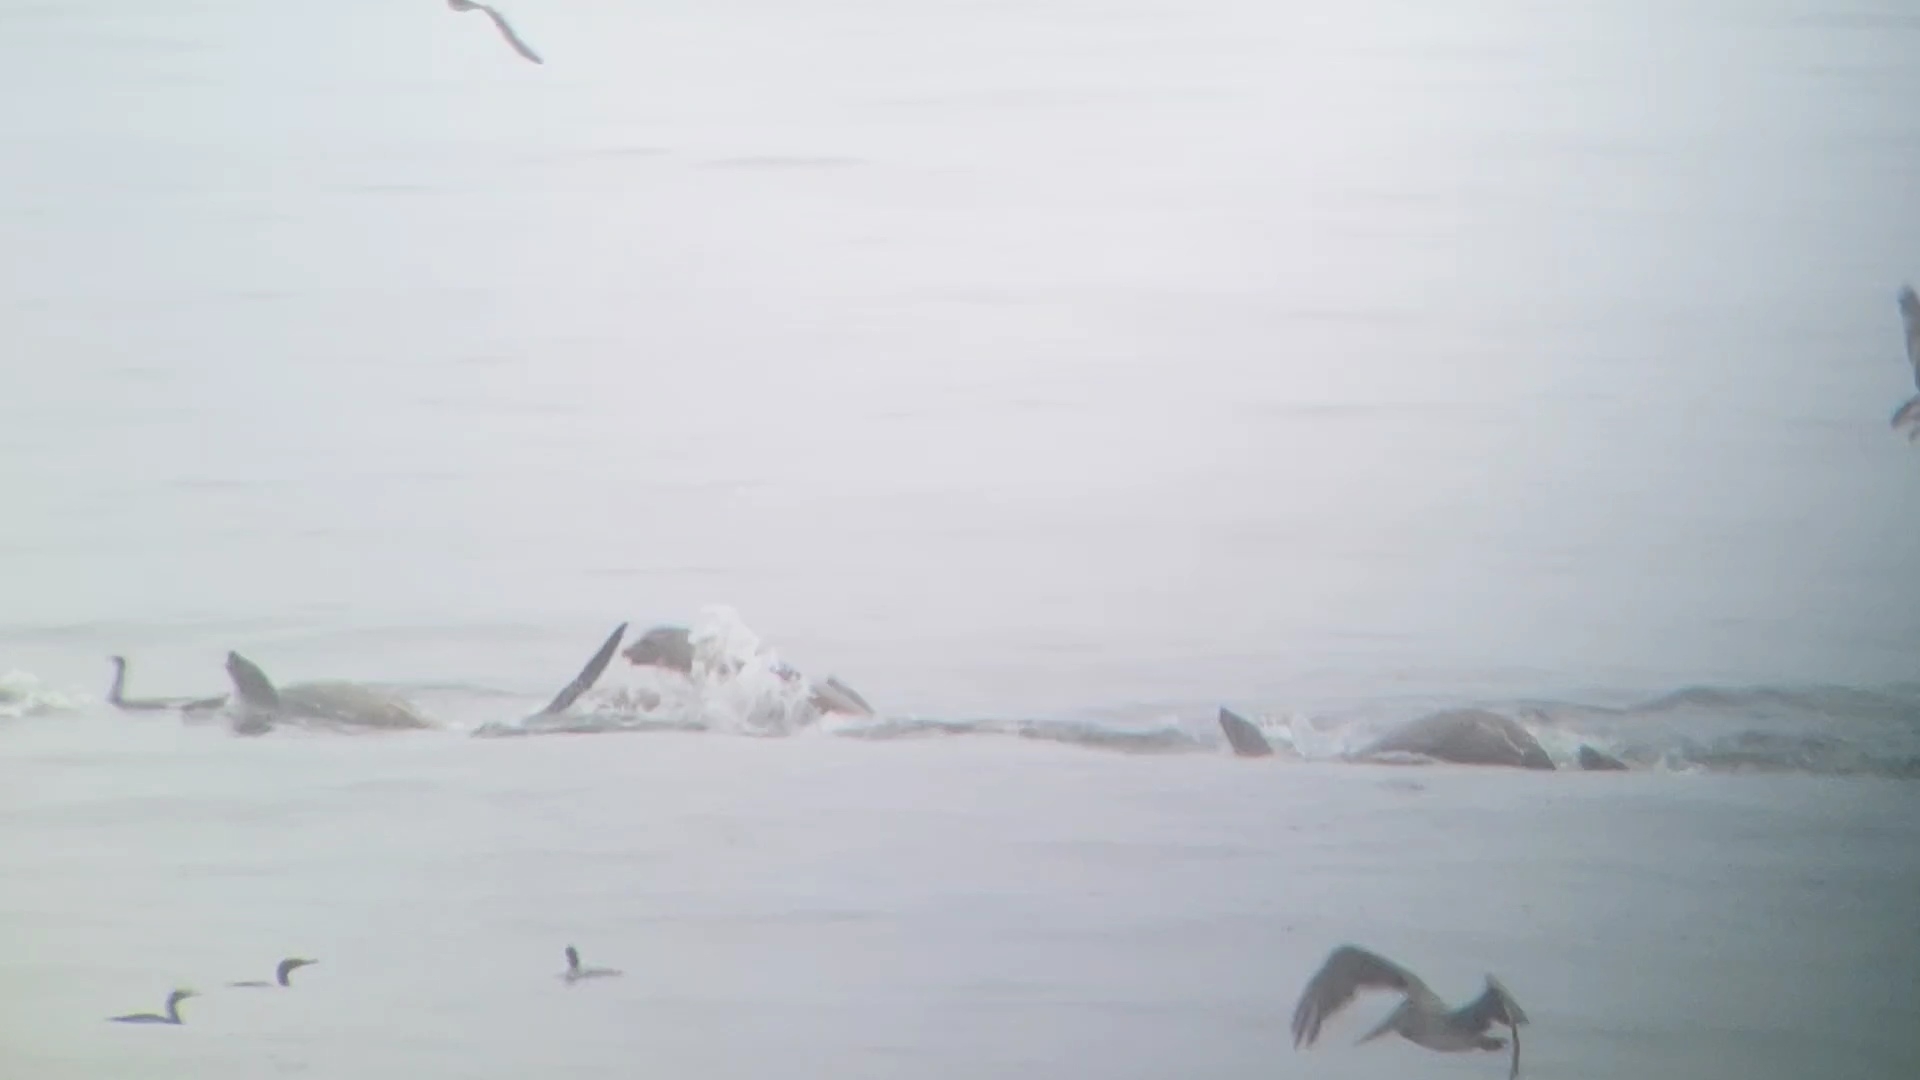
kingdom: Animalia
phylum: Chordata
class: Mammalia
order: Carnivora
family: Otariidae
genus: Zalophus
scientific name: Zalophus californianus
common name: California sea lion
